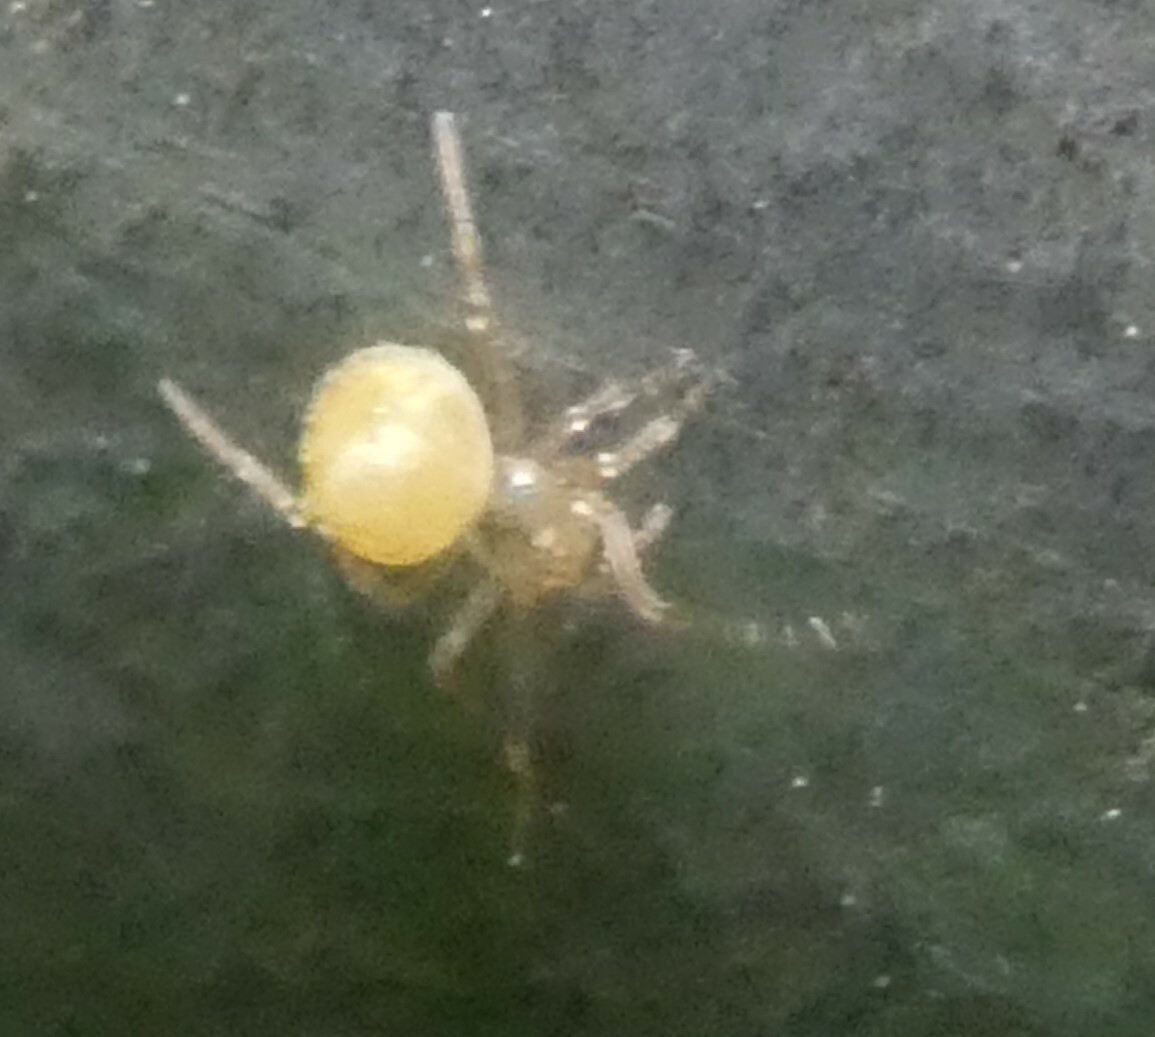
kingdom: Animalia
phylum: Arthropoda
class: Arachnida
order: Araneae
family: Theridiidae
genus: Paidiscura
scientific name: Paidiscura pallens
